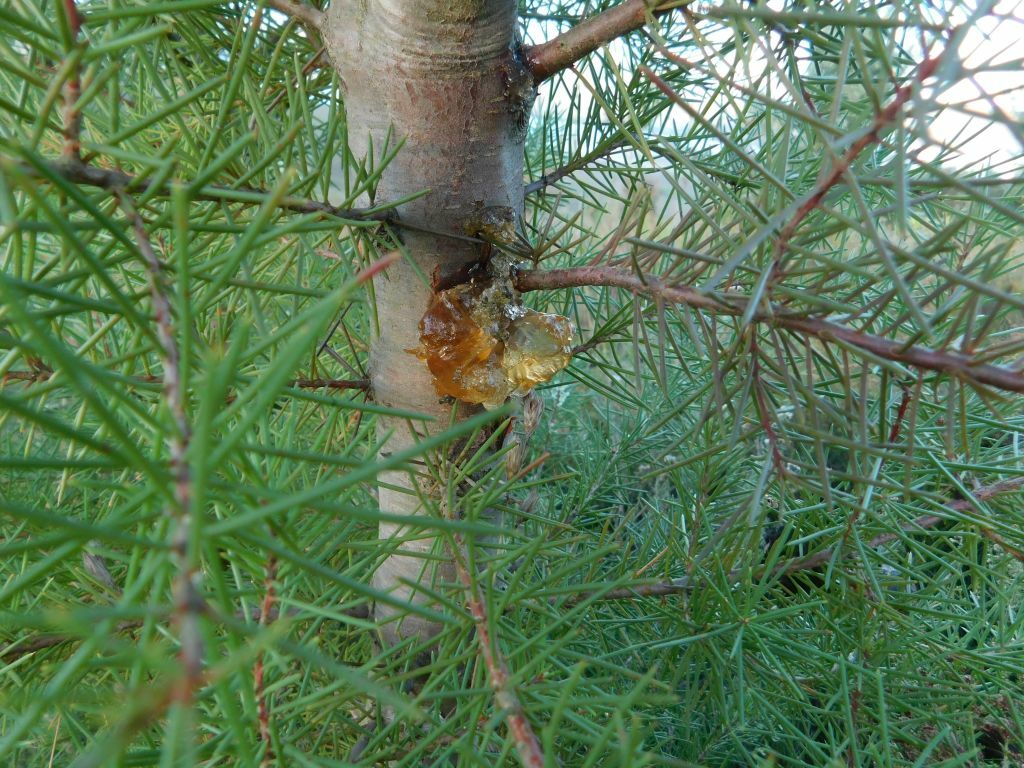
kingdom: Fungi
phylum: Ascomycota
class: Sordariomycetes
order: Glomerellales
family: Glomerellaceae
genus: Colletotrichum
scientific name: Colletotrichum acutatum
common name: Hakea gummosis fungus
